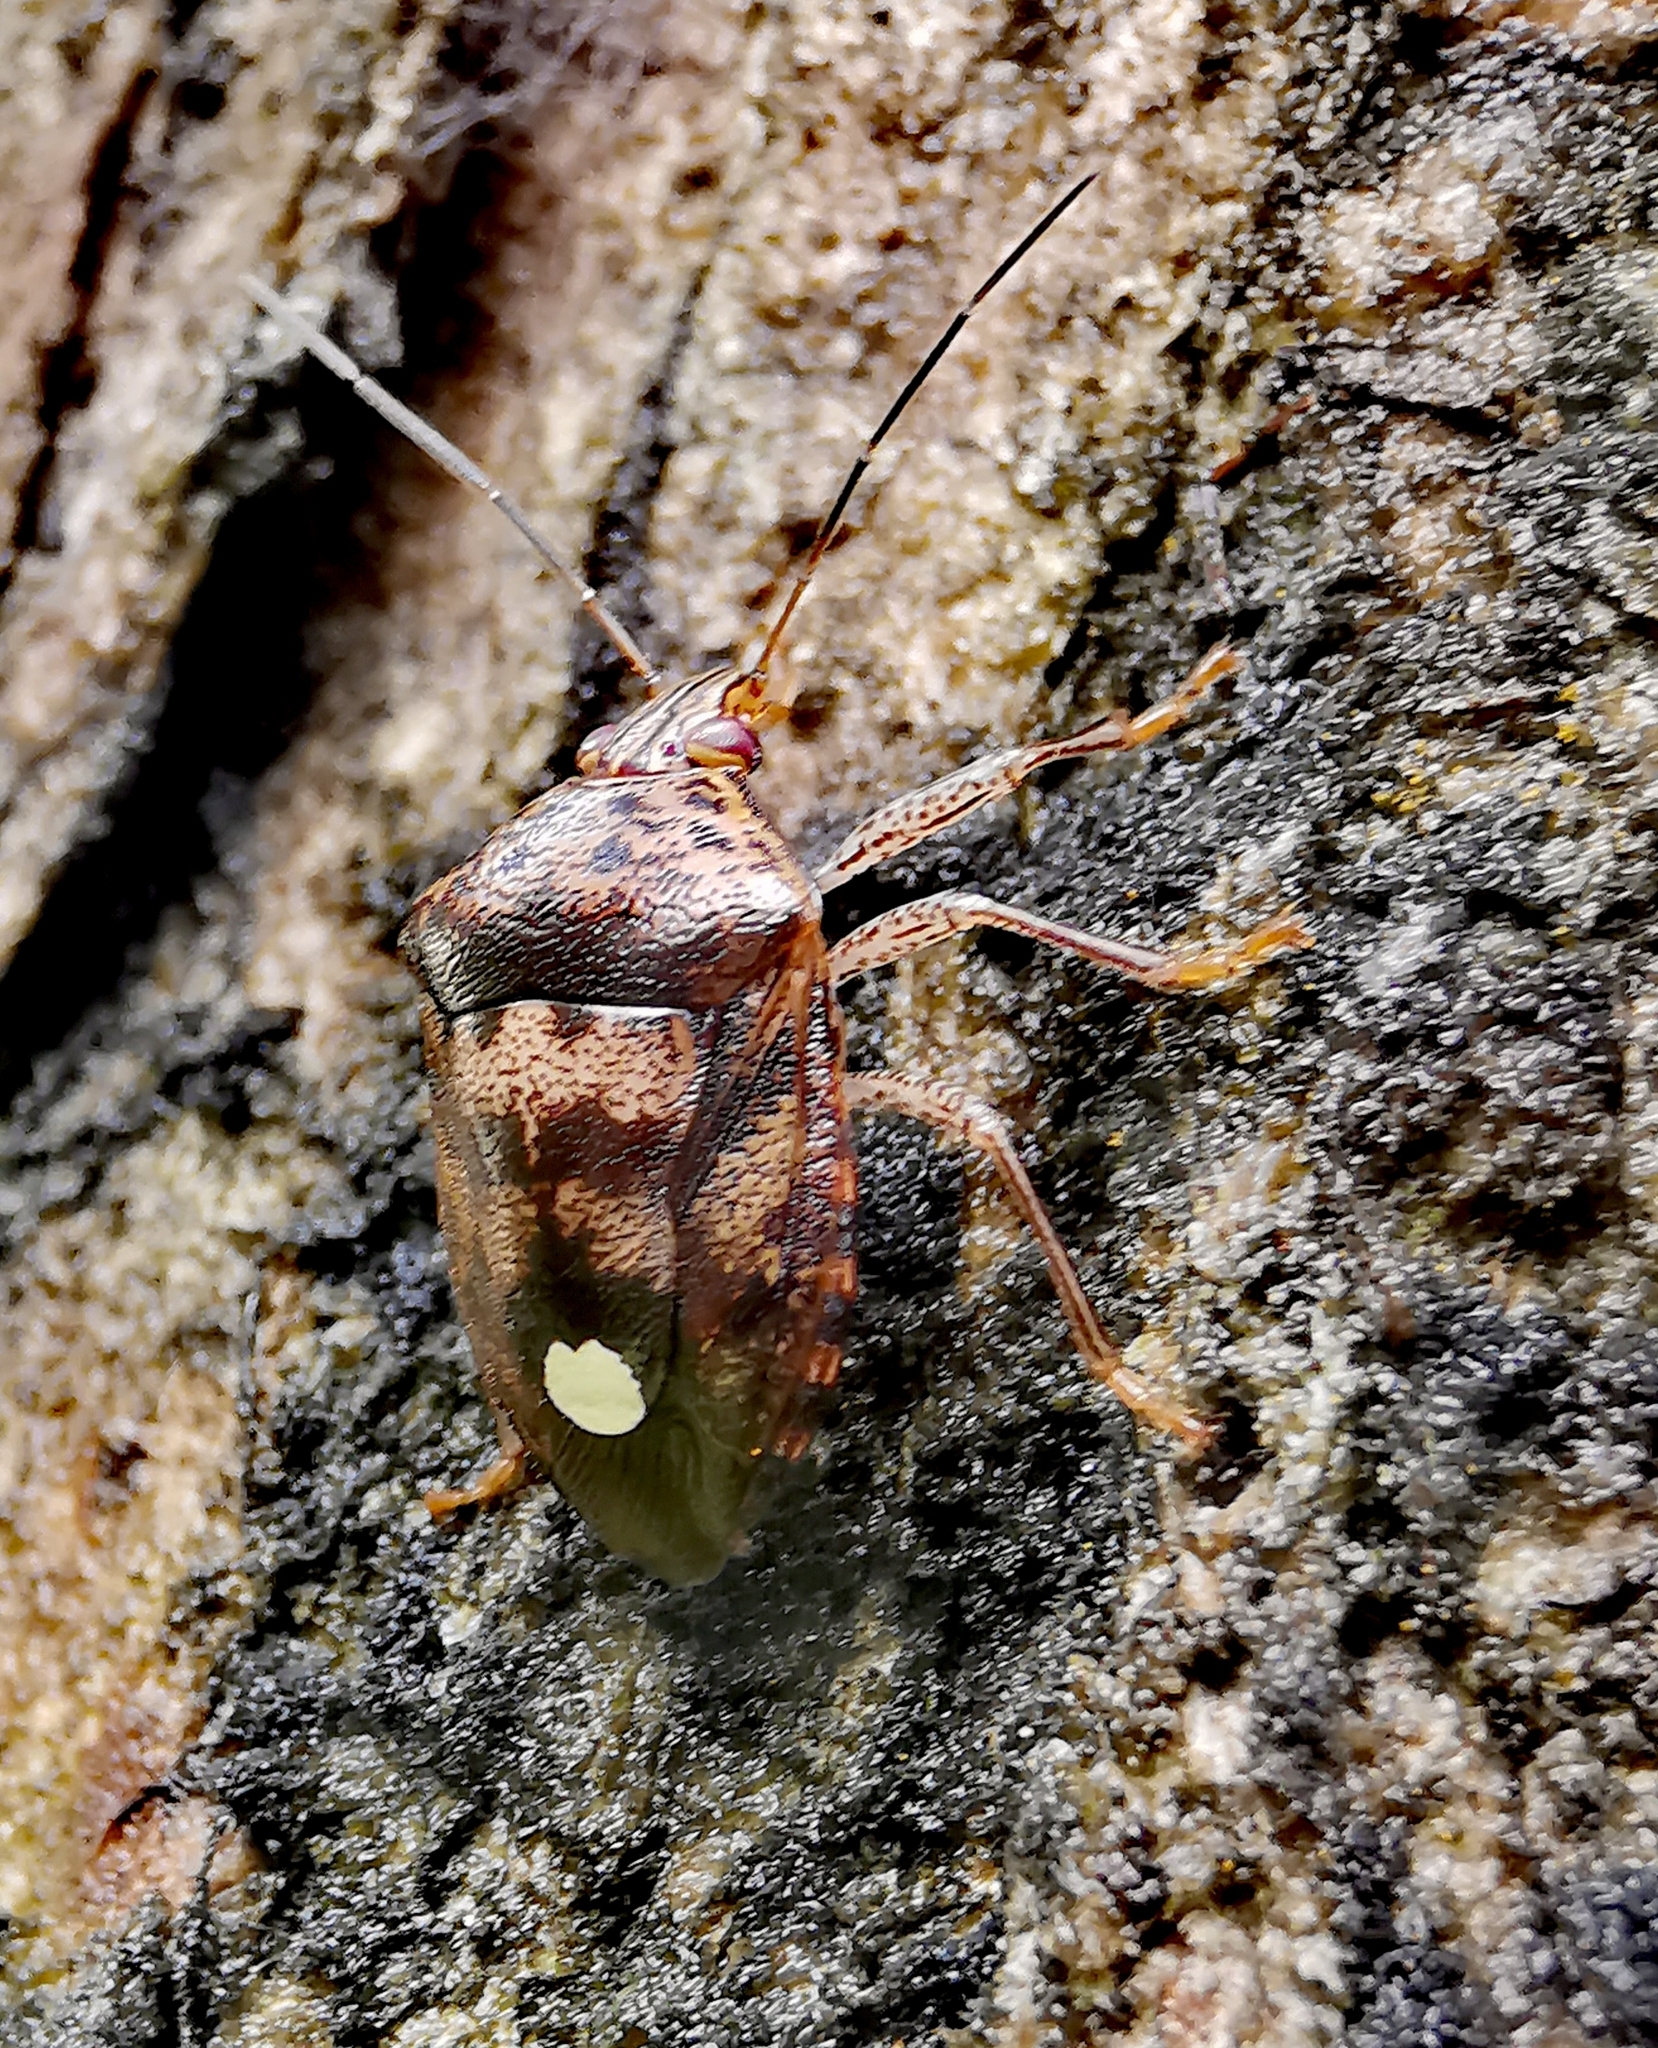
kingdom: Animalia
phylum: Arthropoda
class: Insecta
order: Hemiptera
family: Pentatomidae
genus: Axiagastus
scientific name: Axiagastus
